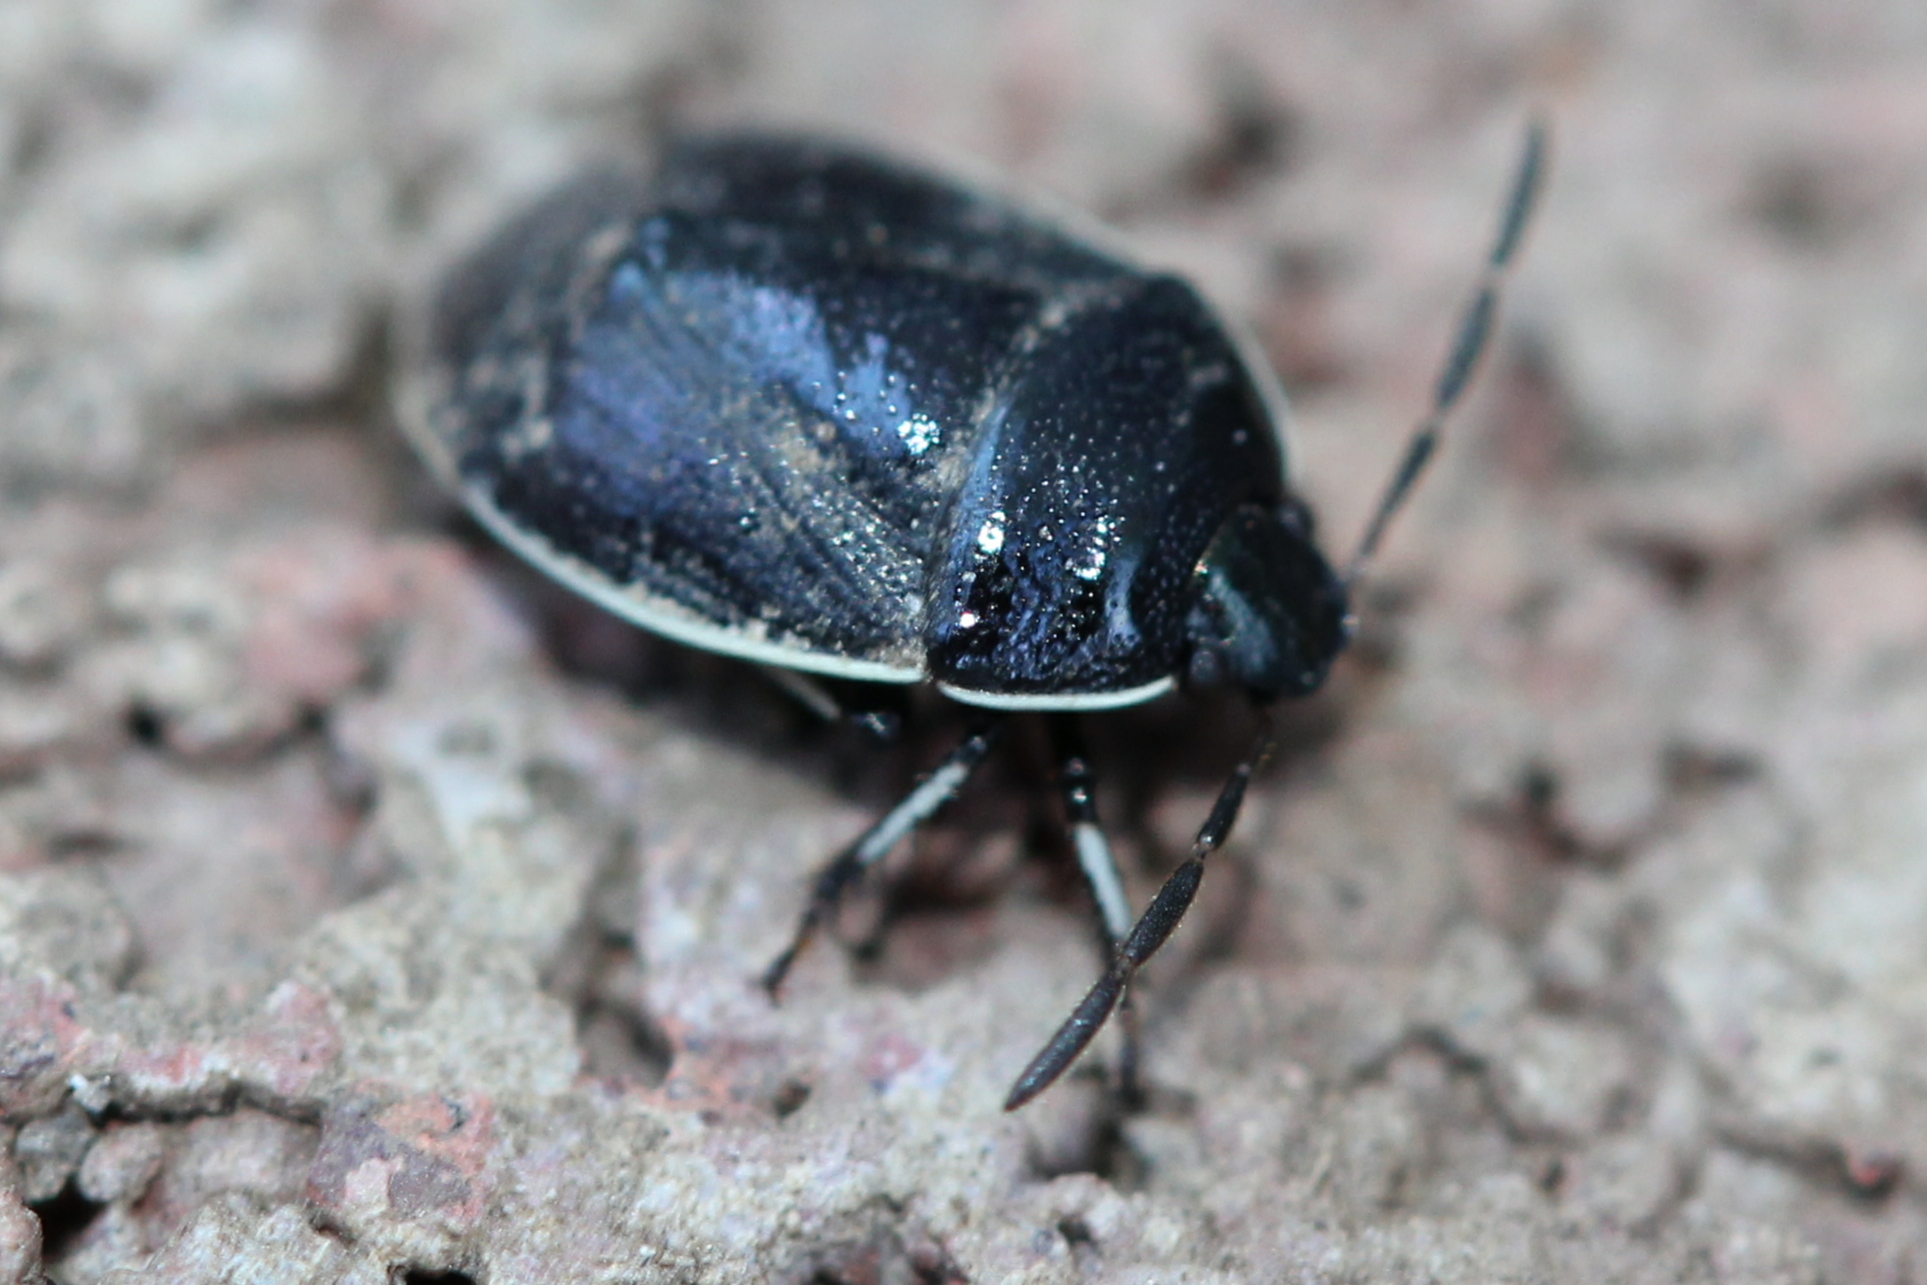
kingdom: Animalia
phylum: Arthropoda
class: Insecta
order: Hemiptera
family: Cydnidae
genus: Sehirus
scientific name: Sehirus cinctus
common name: White-margined burrower bug
